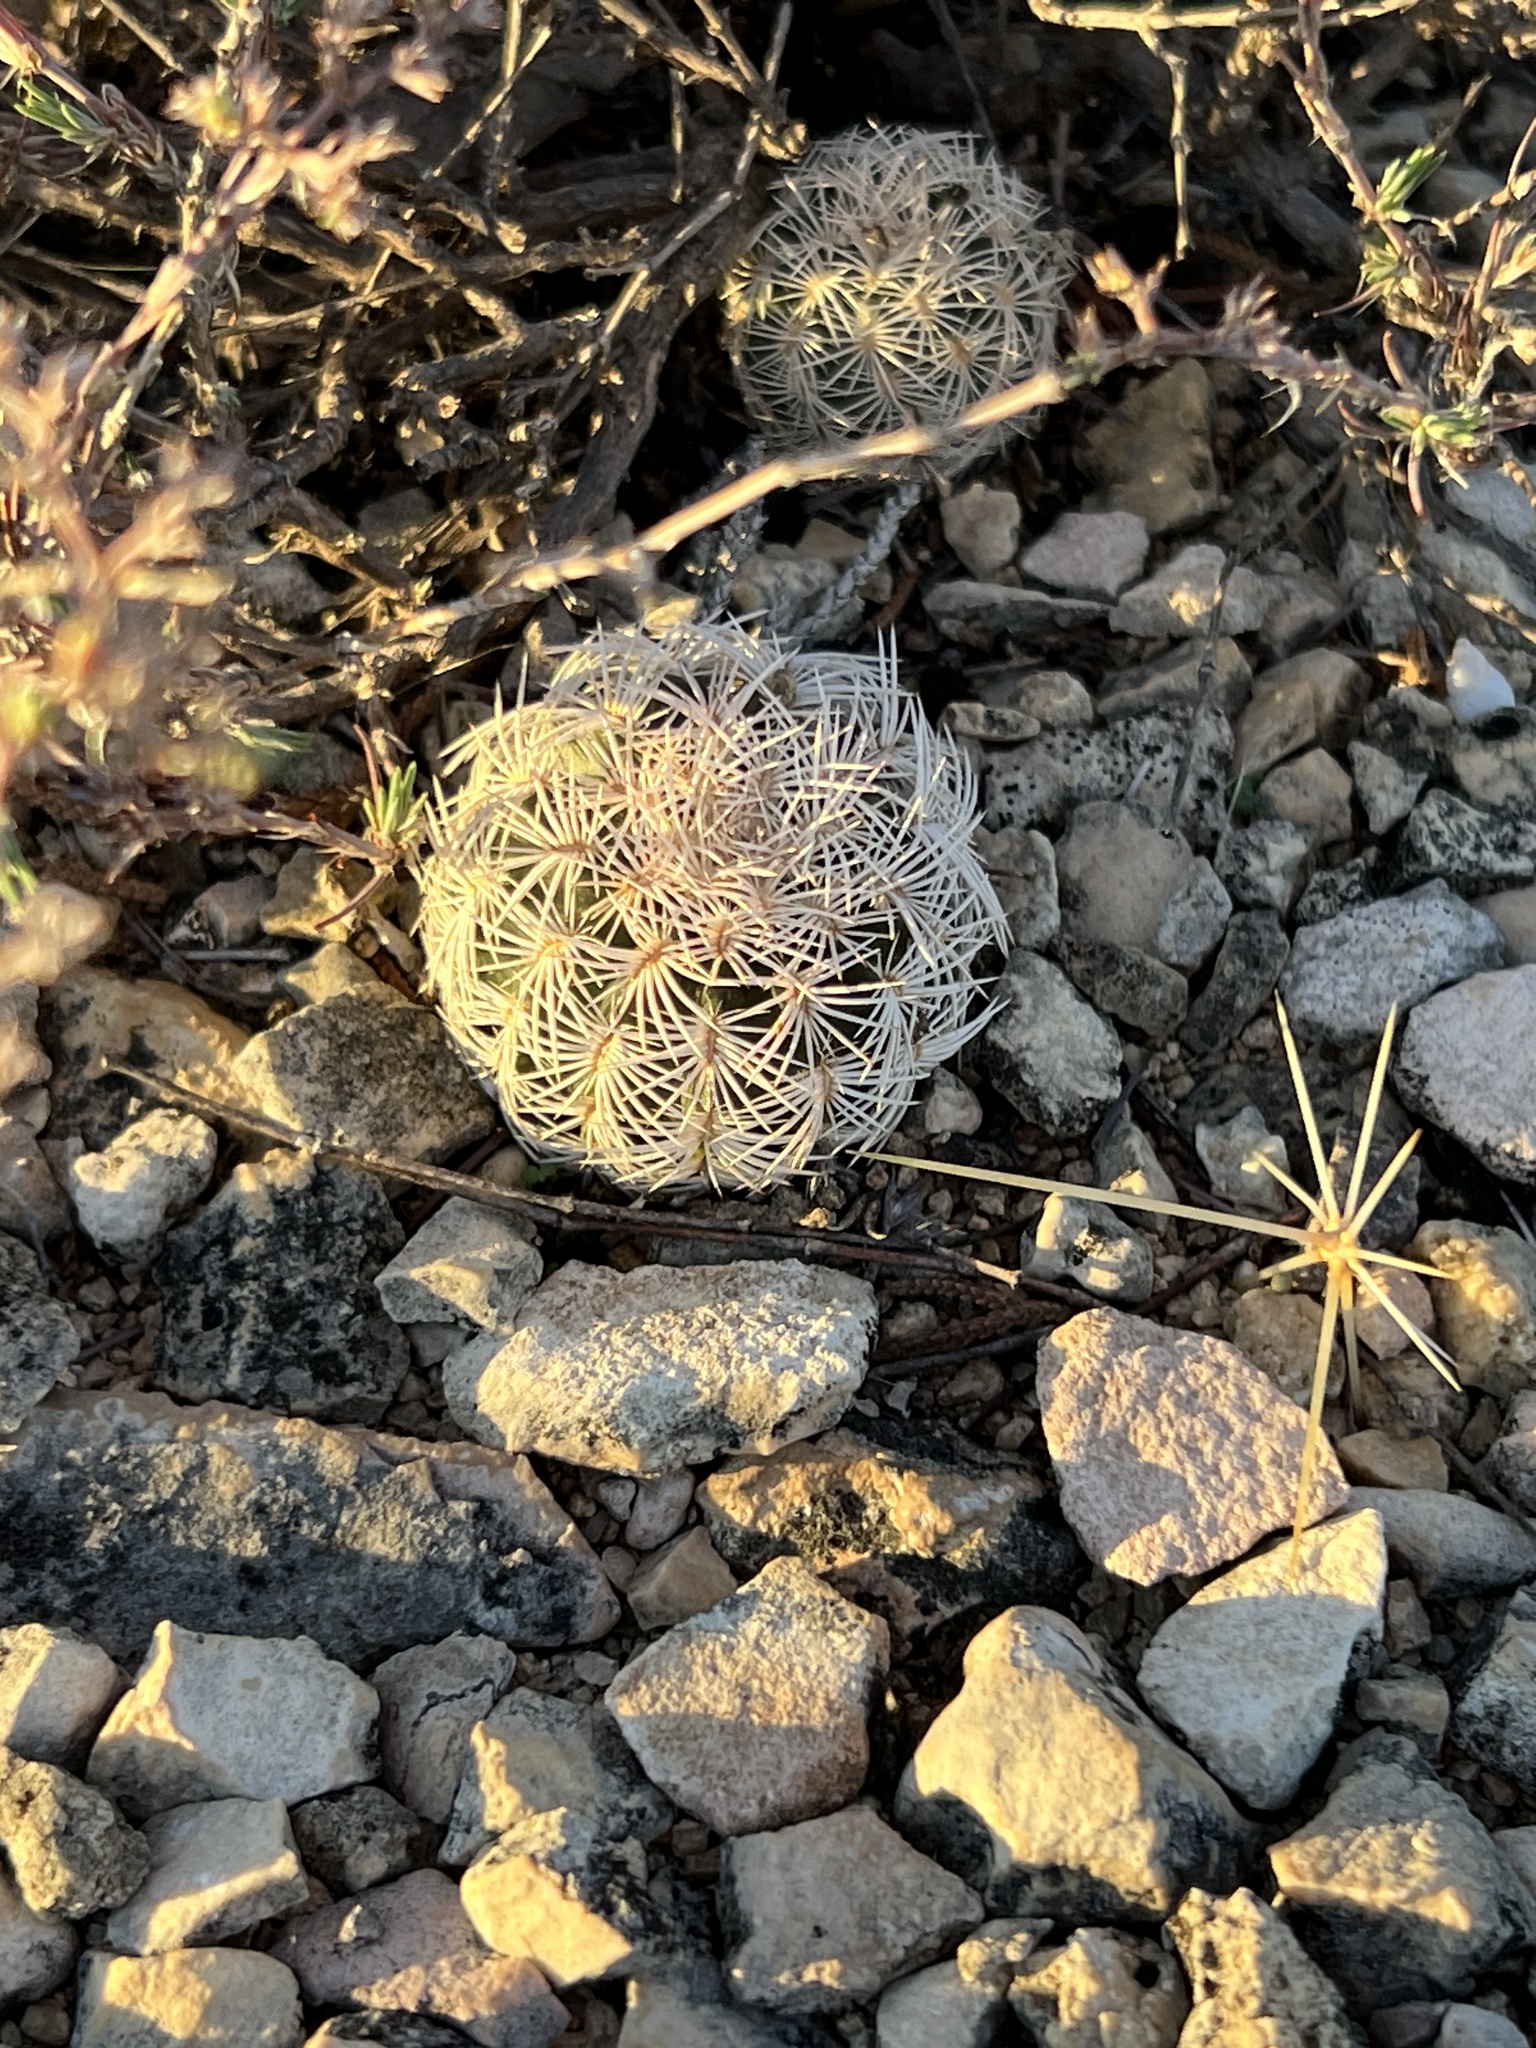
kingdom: Plantae
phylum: Tracheophyta
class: Magnoliopsida
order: Caryophyllales
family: Cactaceae
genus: Echinocereus
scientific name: Echinocereus reichenbachii
